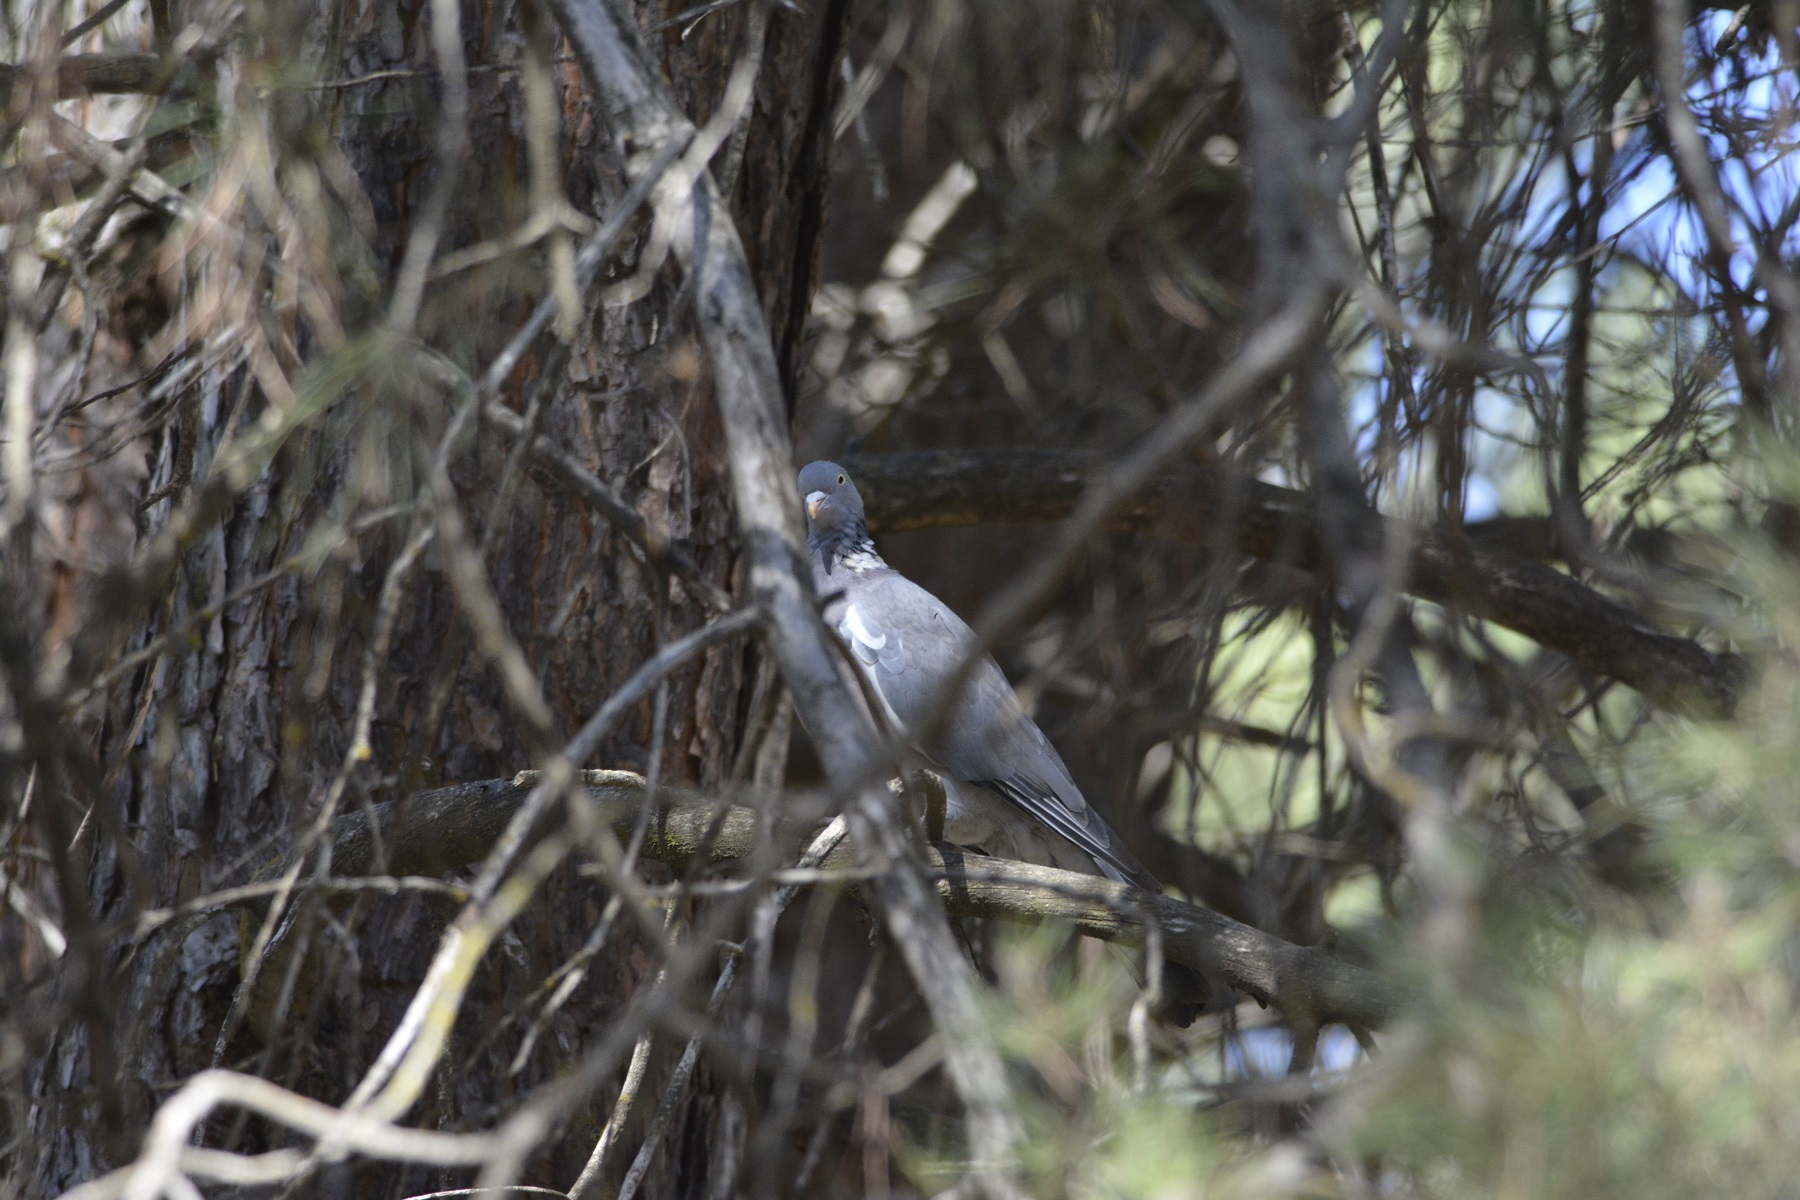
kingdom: Animalia
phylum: Chordata
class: Aves
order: Columbiformes
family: Columbidae
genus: Columba
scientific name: Columba palumbus
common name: Common wood pigeon
